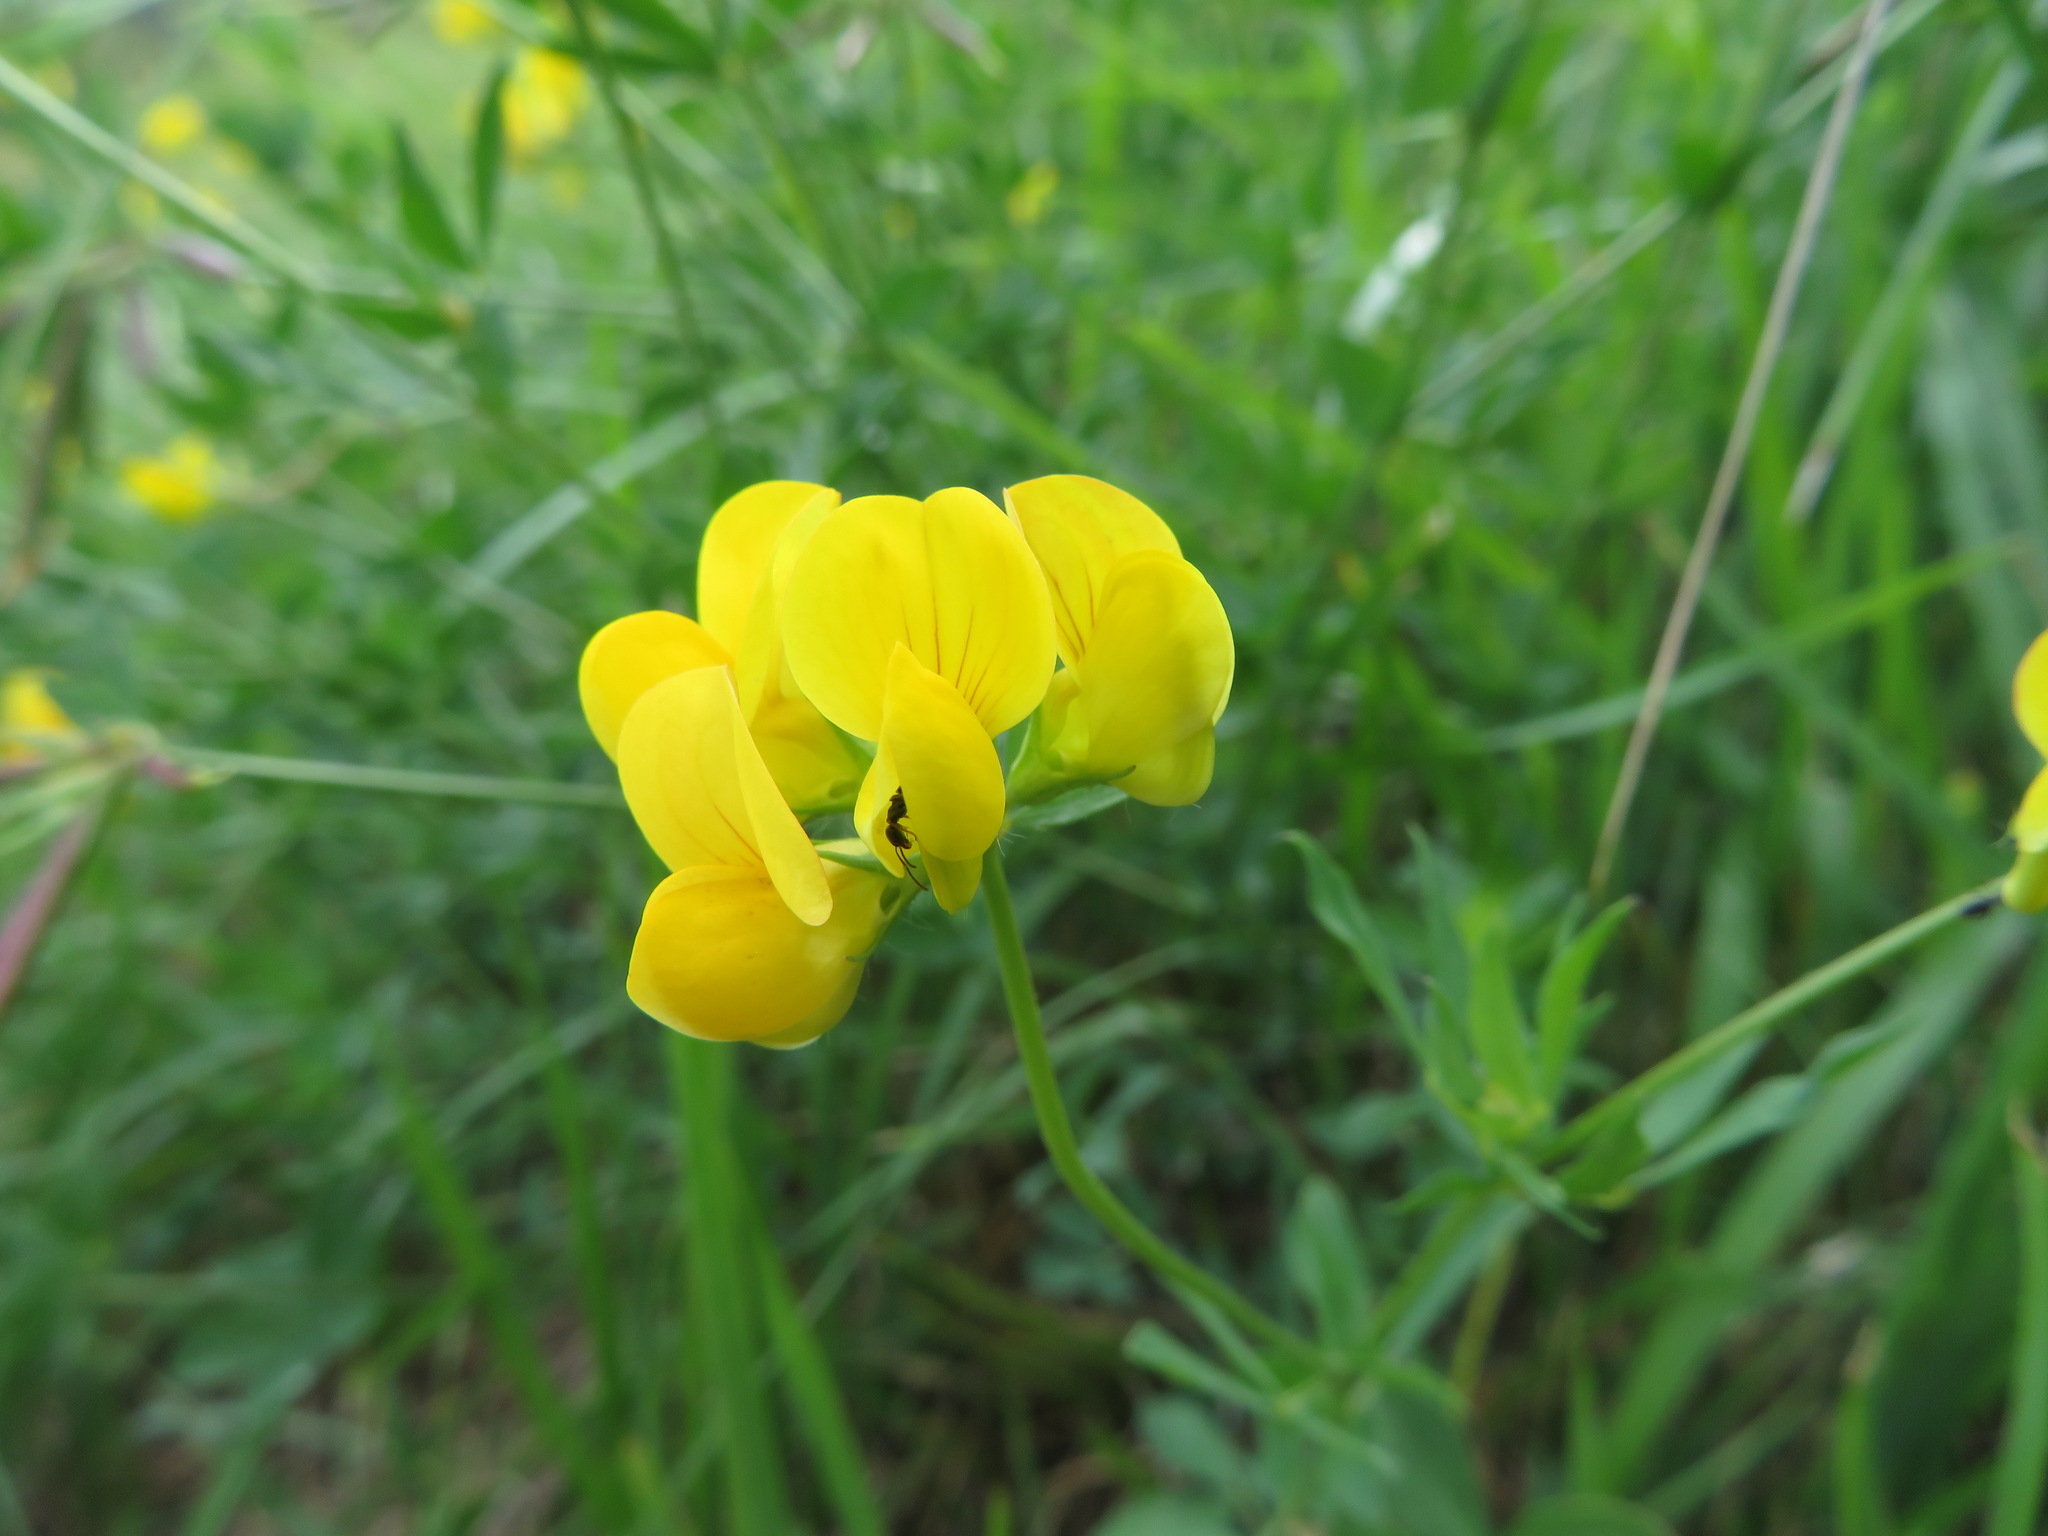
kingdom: Plantae
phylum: Tracheophyta
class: Magnoliopsida
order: Fabales
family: Fabaceae
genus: Lotus
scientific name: Lotus corniculatus
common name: Common bird's-foot-trefoil
